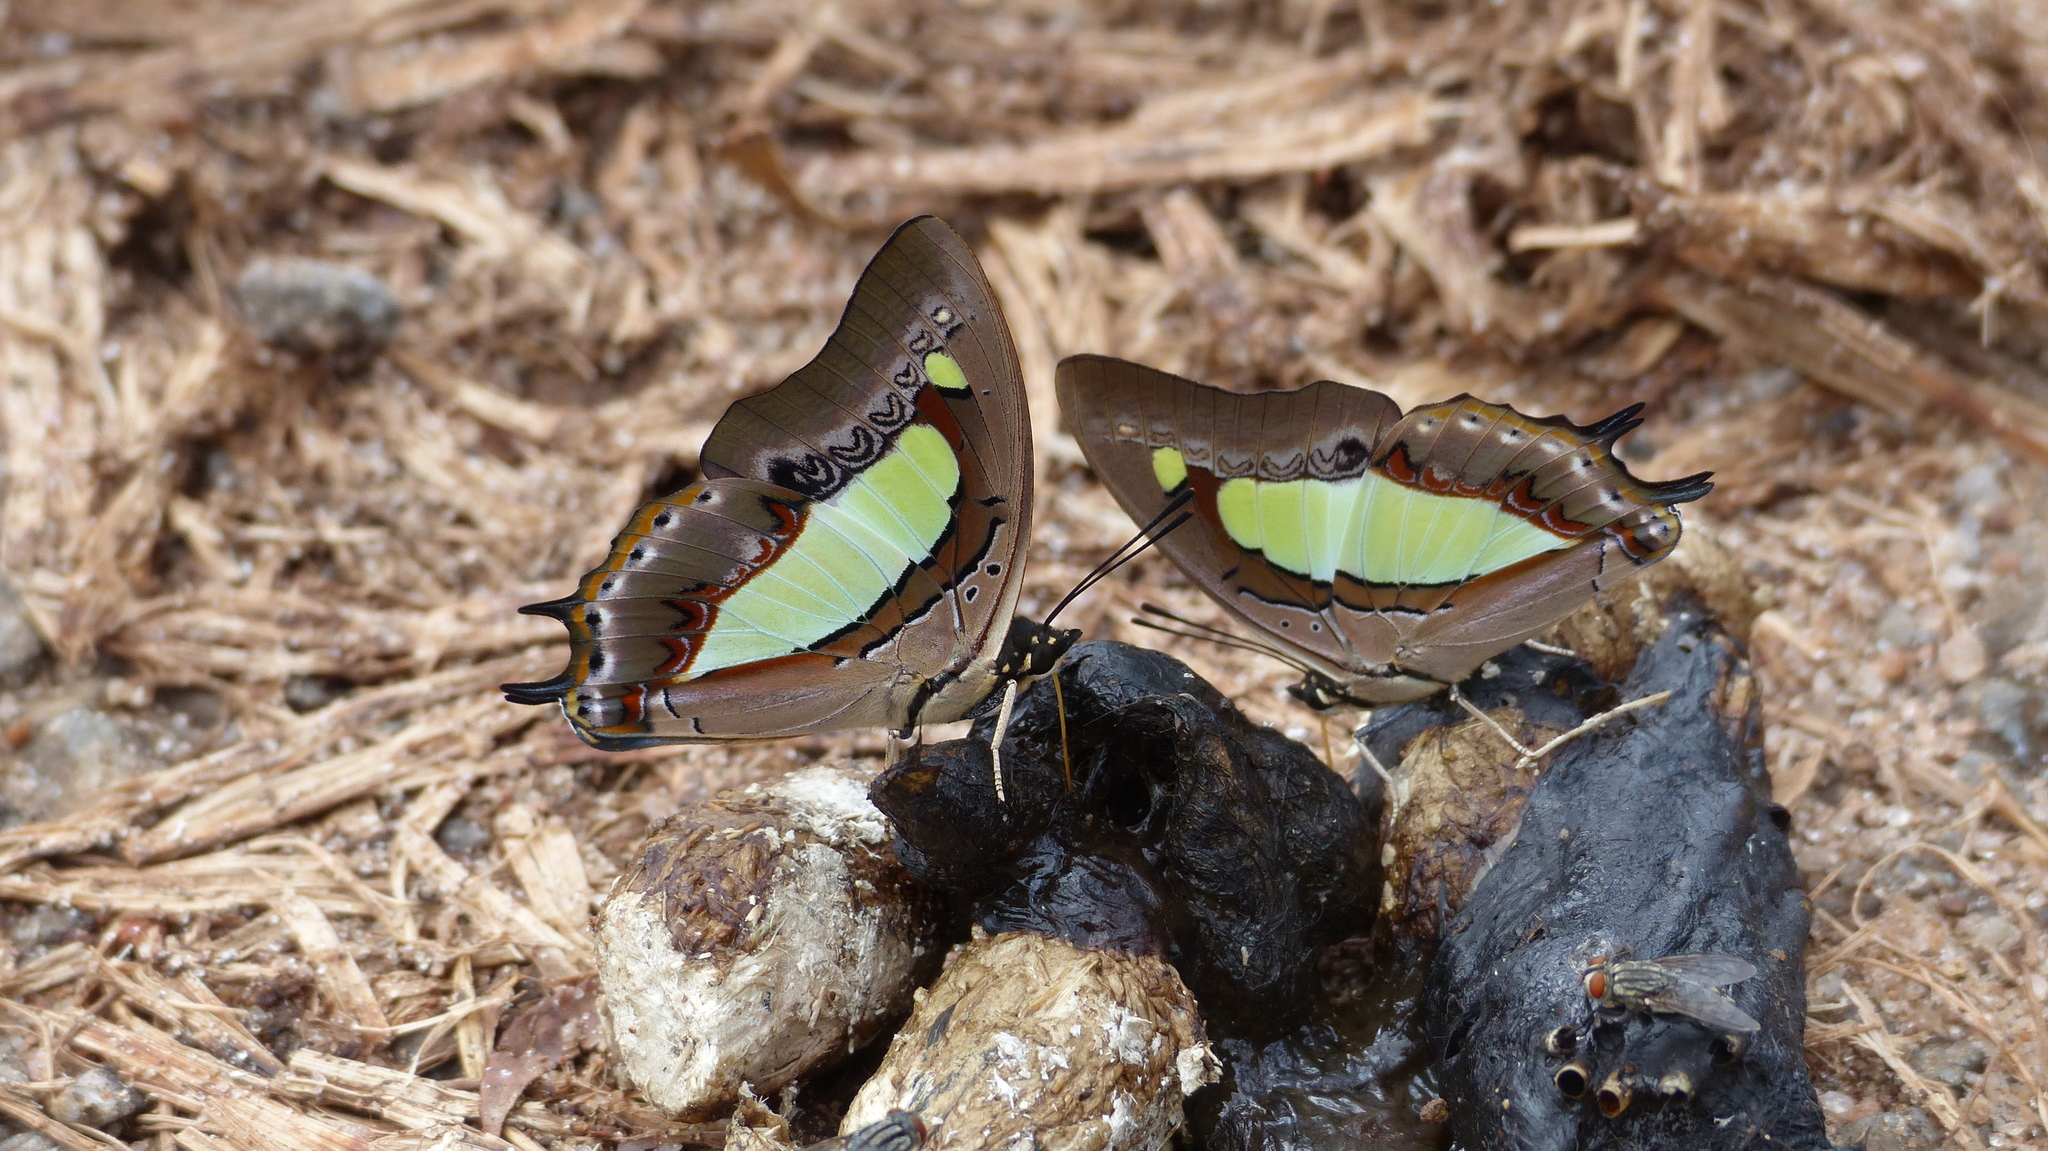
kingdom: Animalia
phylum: Arthropoda
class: Insecta
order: Lepidoptera
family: Nymphalidae
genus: Polyura
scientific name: Polyura
